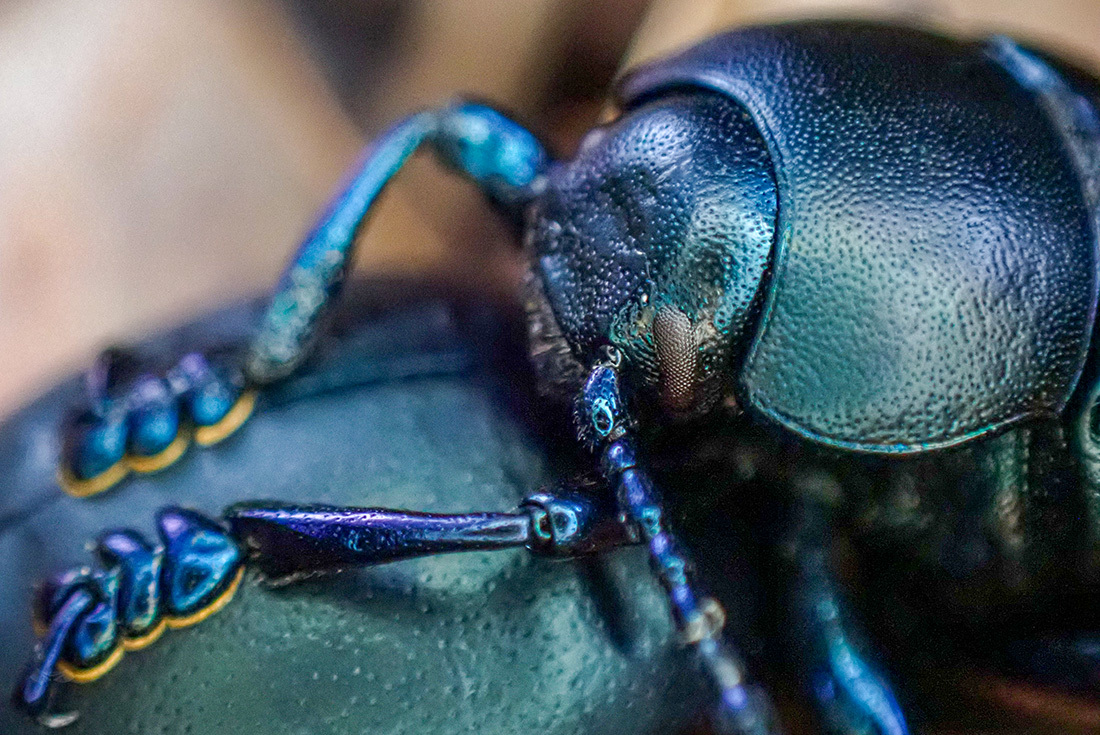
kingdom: Animalia
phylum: Arthropoda
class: Insecta
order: Coleoptera
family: Chrysomelidae
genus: Timarcha
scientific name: Timarcha nicaeensis
